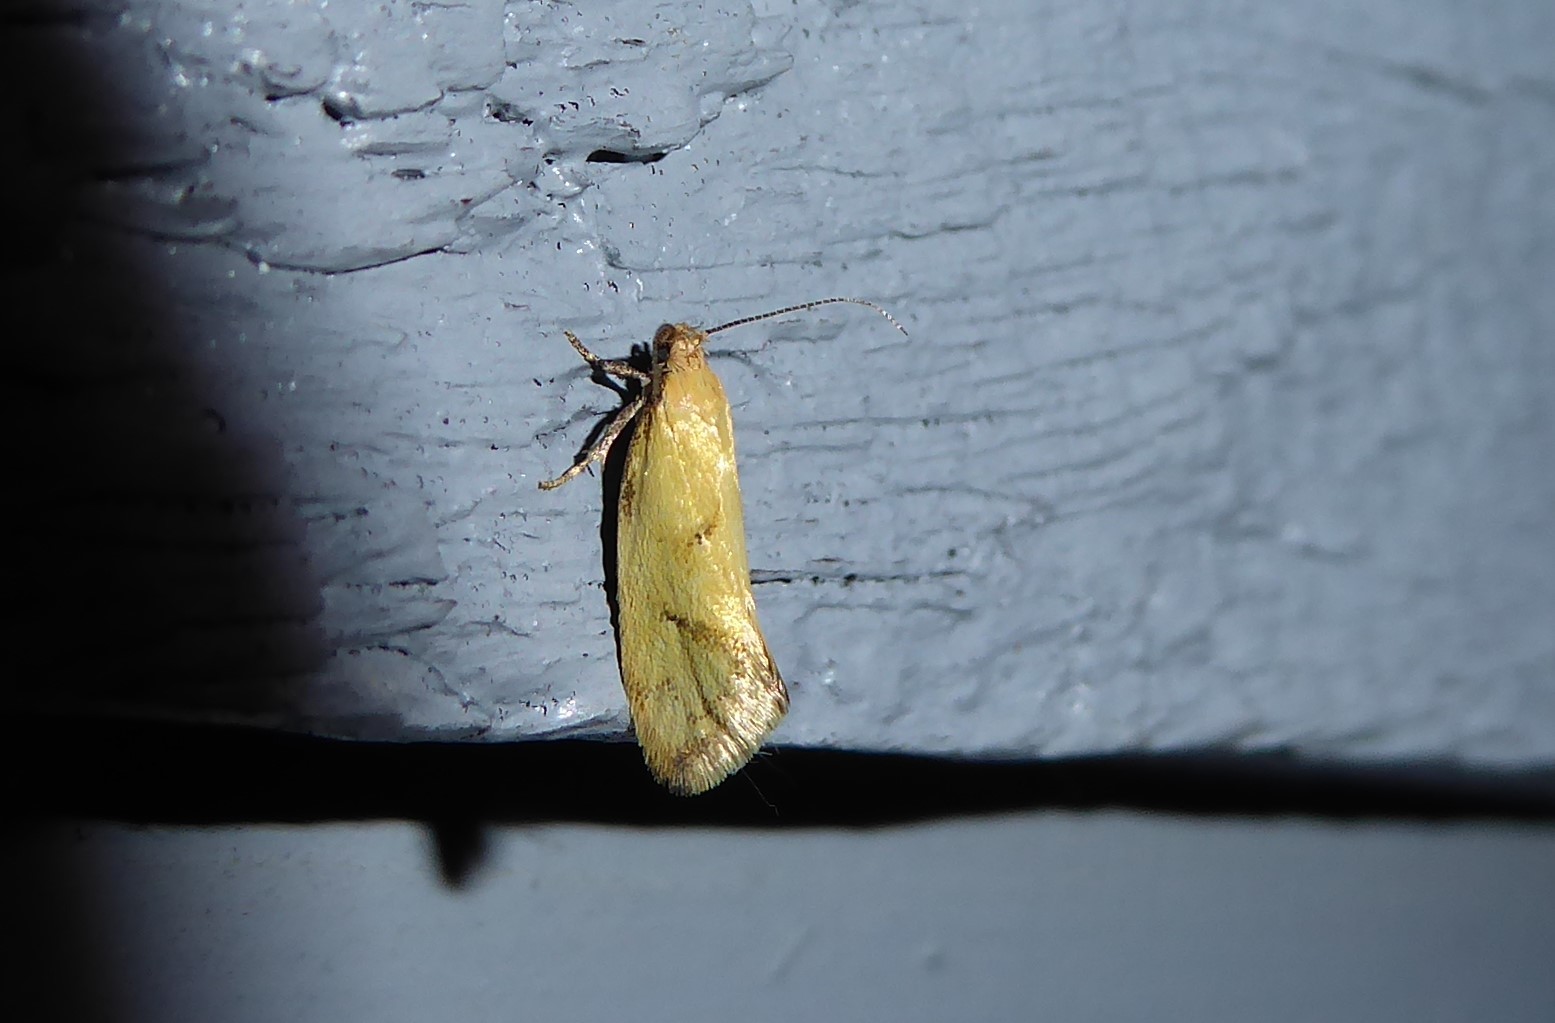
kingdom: Animalia
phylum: Arthropoda
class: Insecta
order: Lepidoptera
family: Oecophoridae
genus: Tingena
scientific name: Tingena actinias
